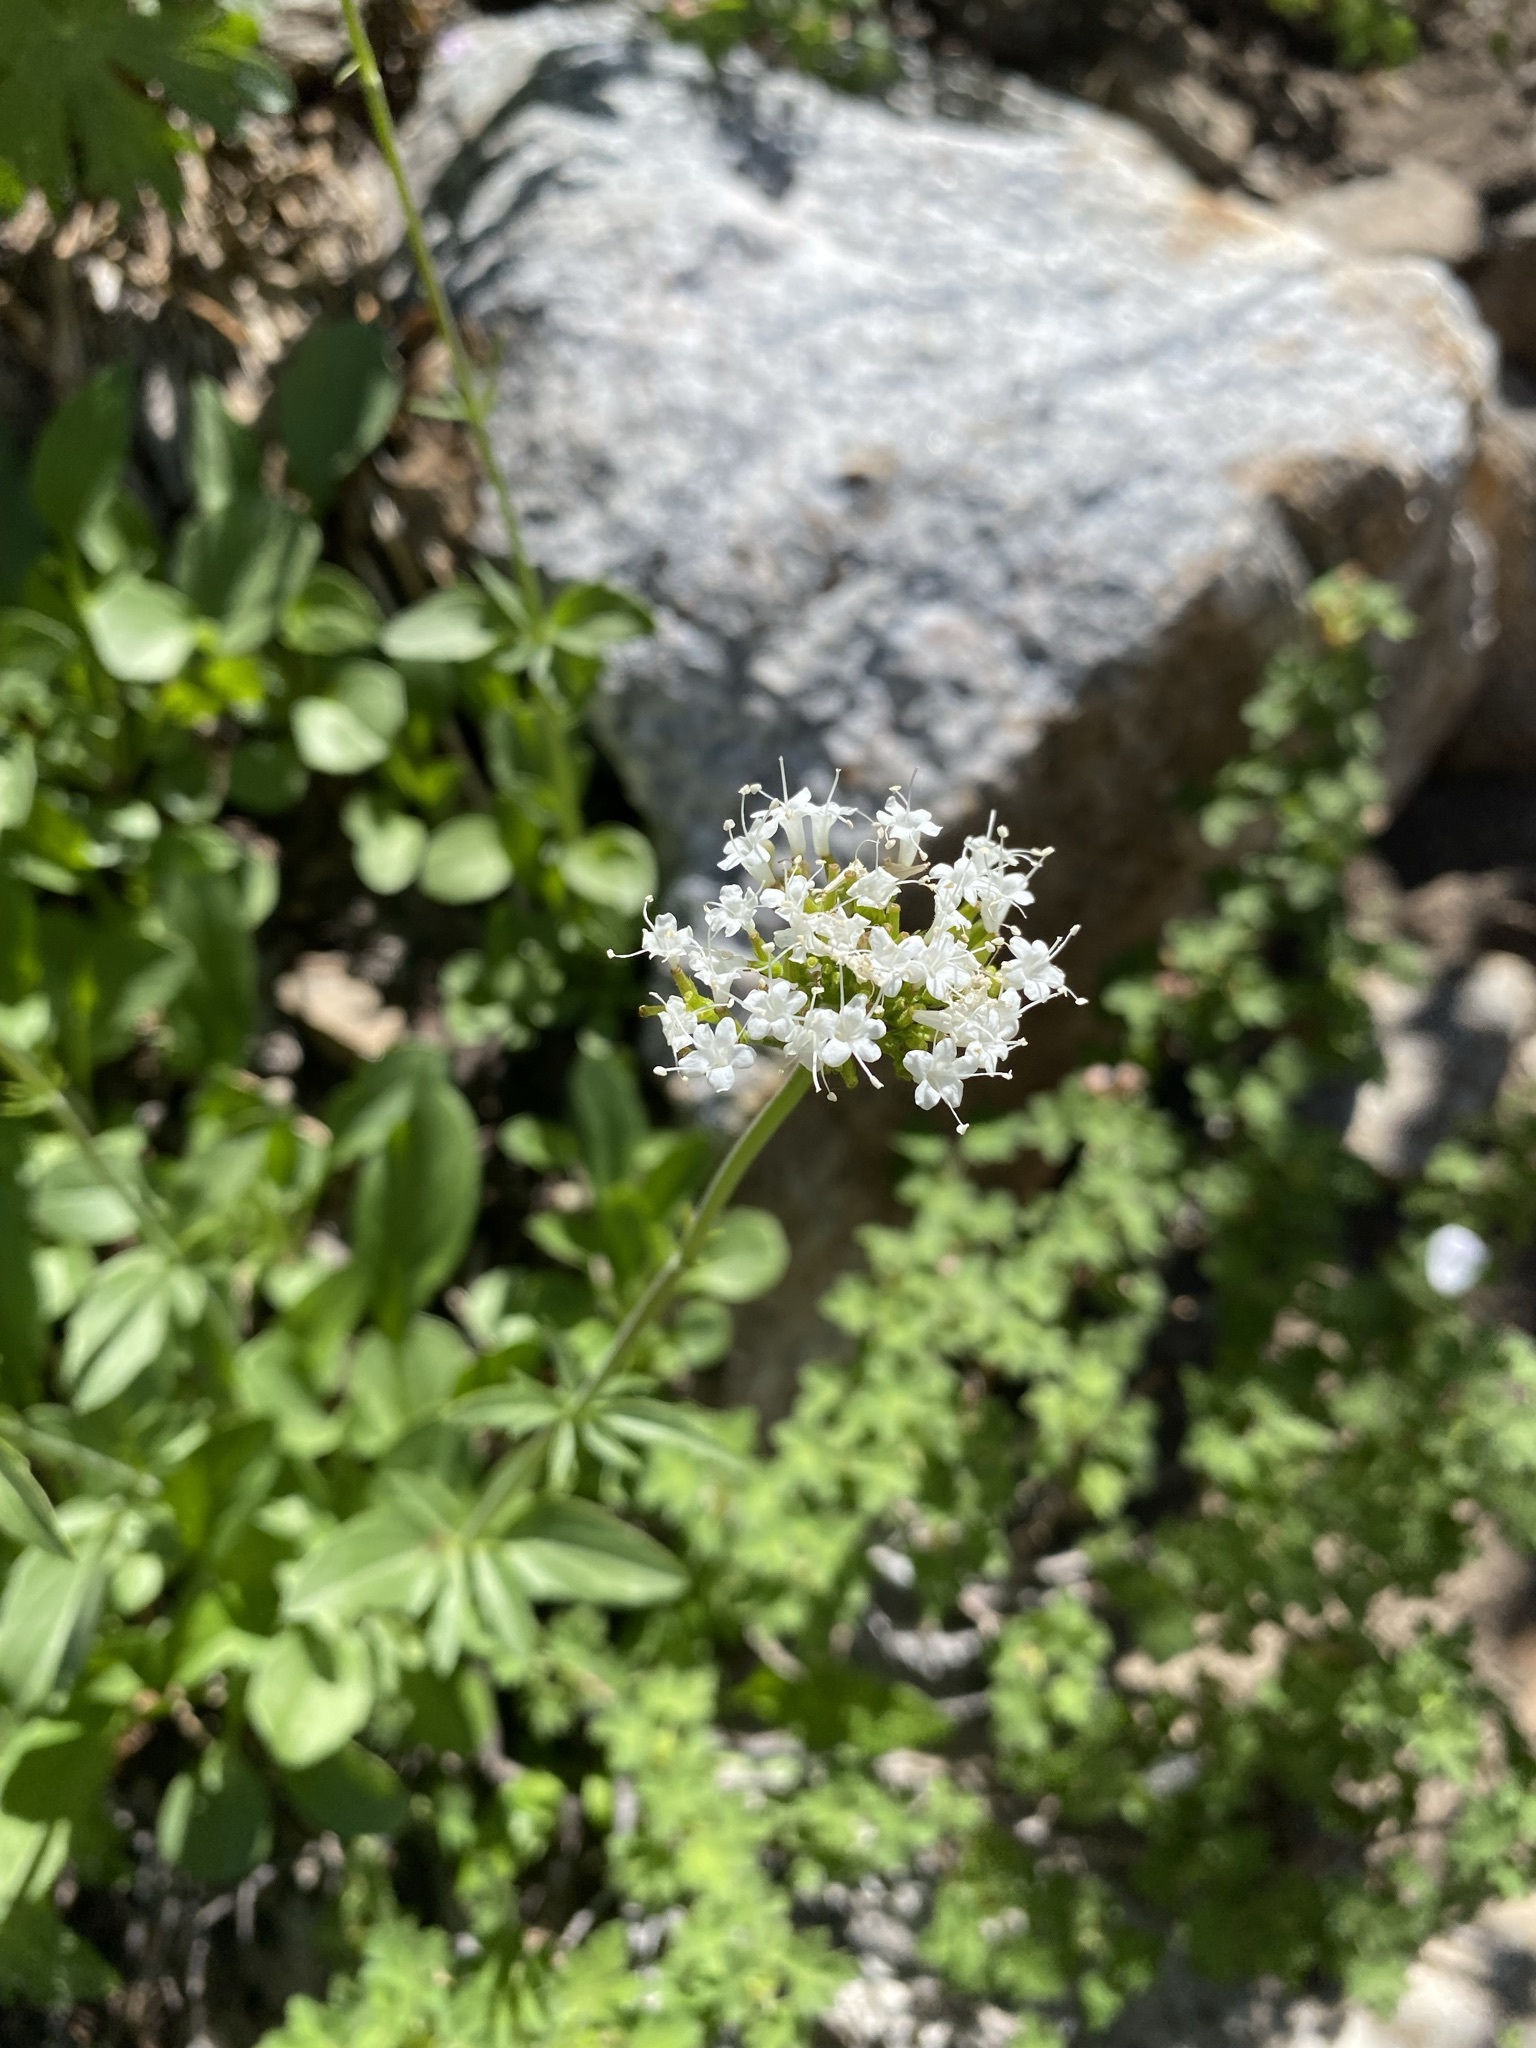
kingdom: Plantae
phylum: Tracheophyta
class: Magnoliopsida
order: Dipsacales
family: Caprifoliaceae
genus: Valeriana
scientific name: Valeriana californica
